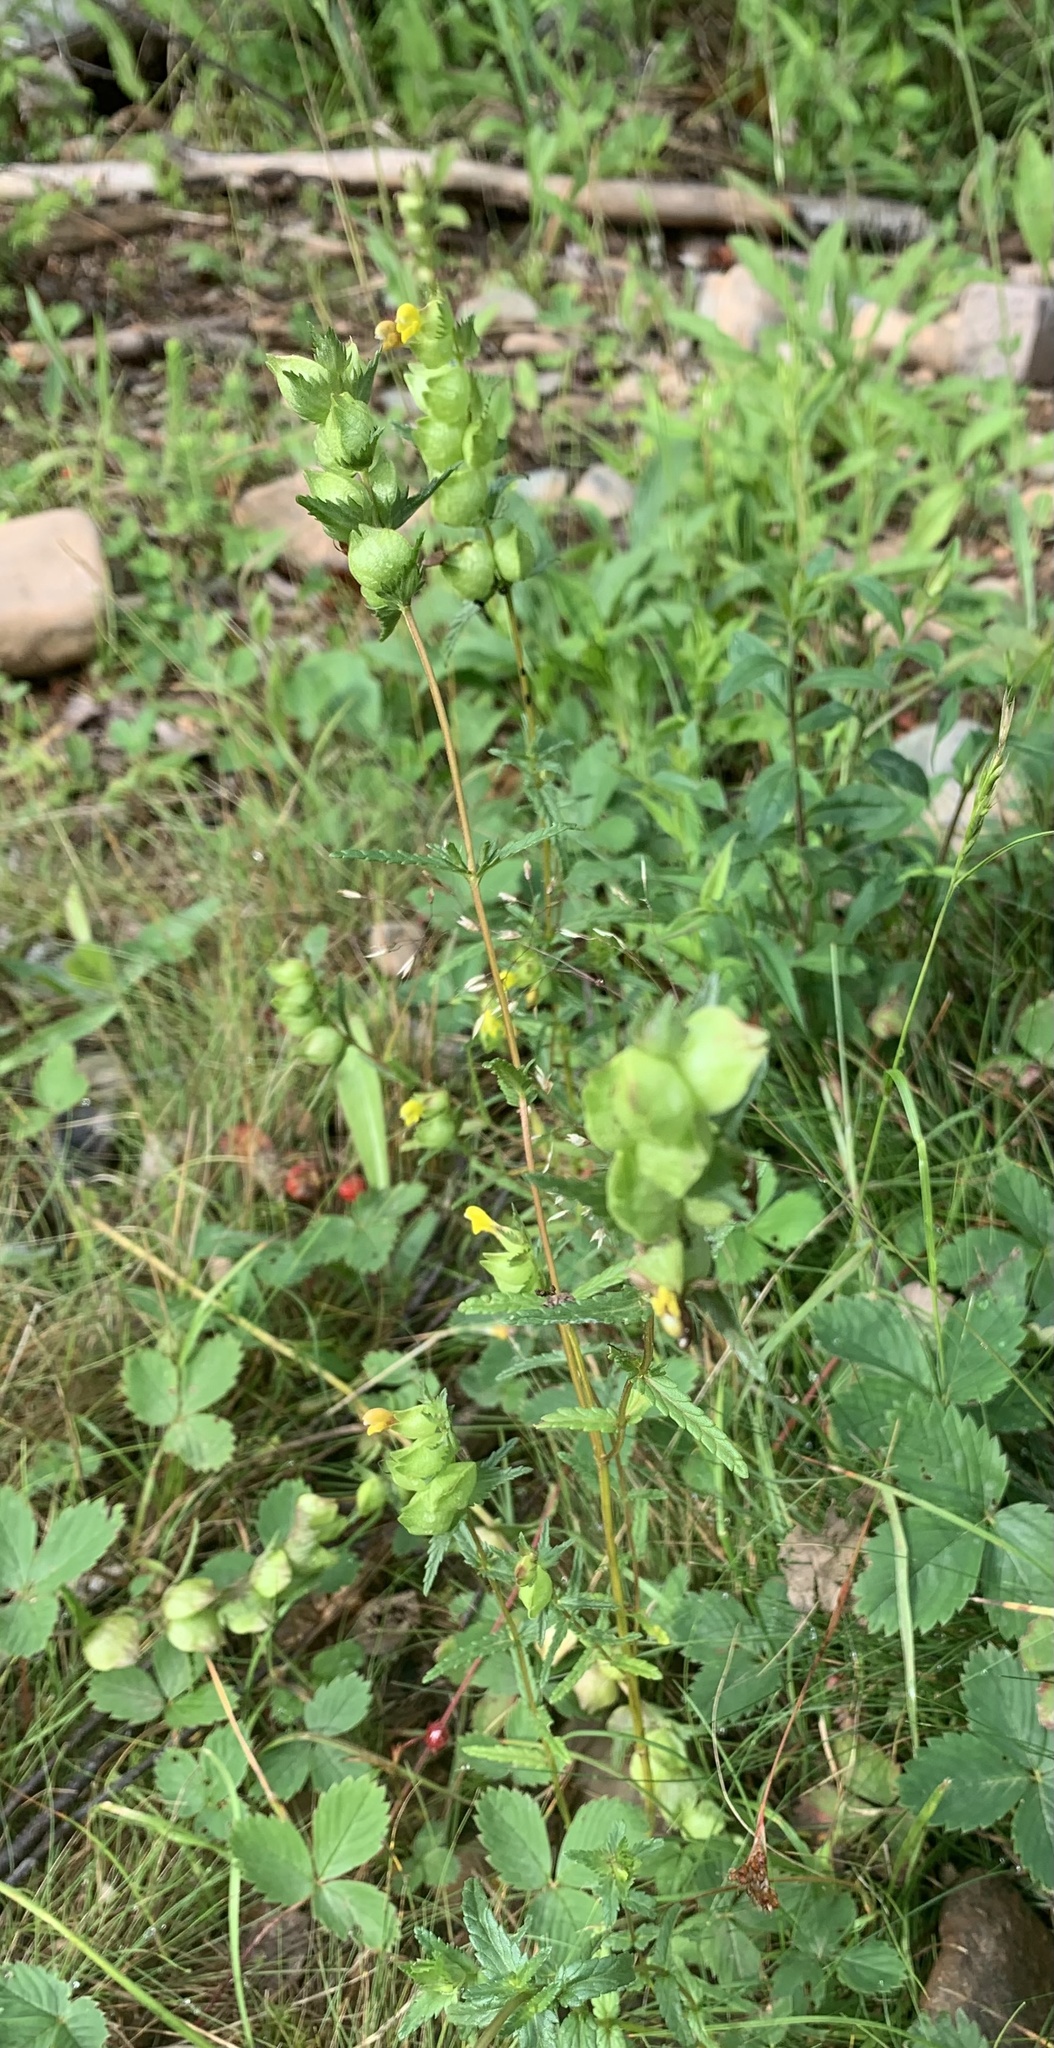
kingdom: Plantae
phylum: Tracheophyta
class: Magnoliopsida
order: Lamiales
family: Orobanchaceae
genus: Rhinanthus
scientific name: Rhinanthus minor
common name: Yellow-rattle
